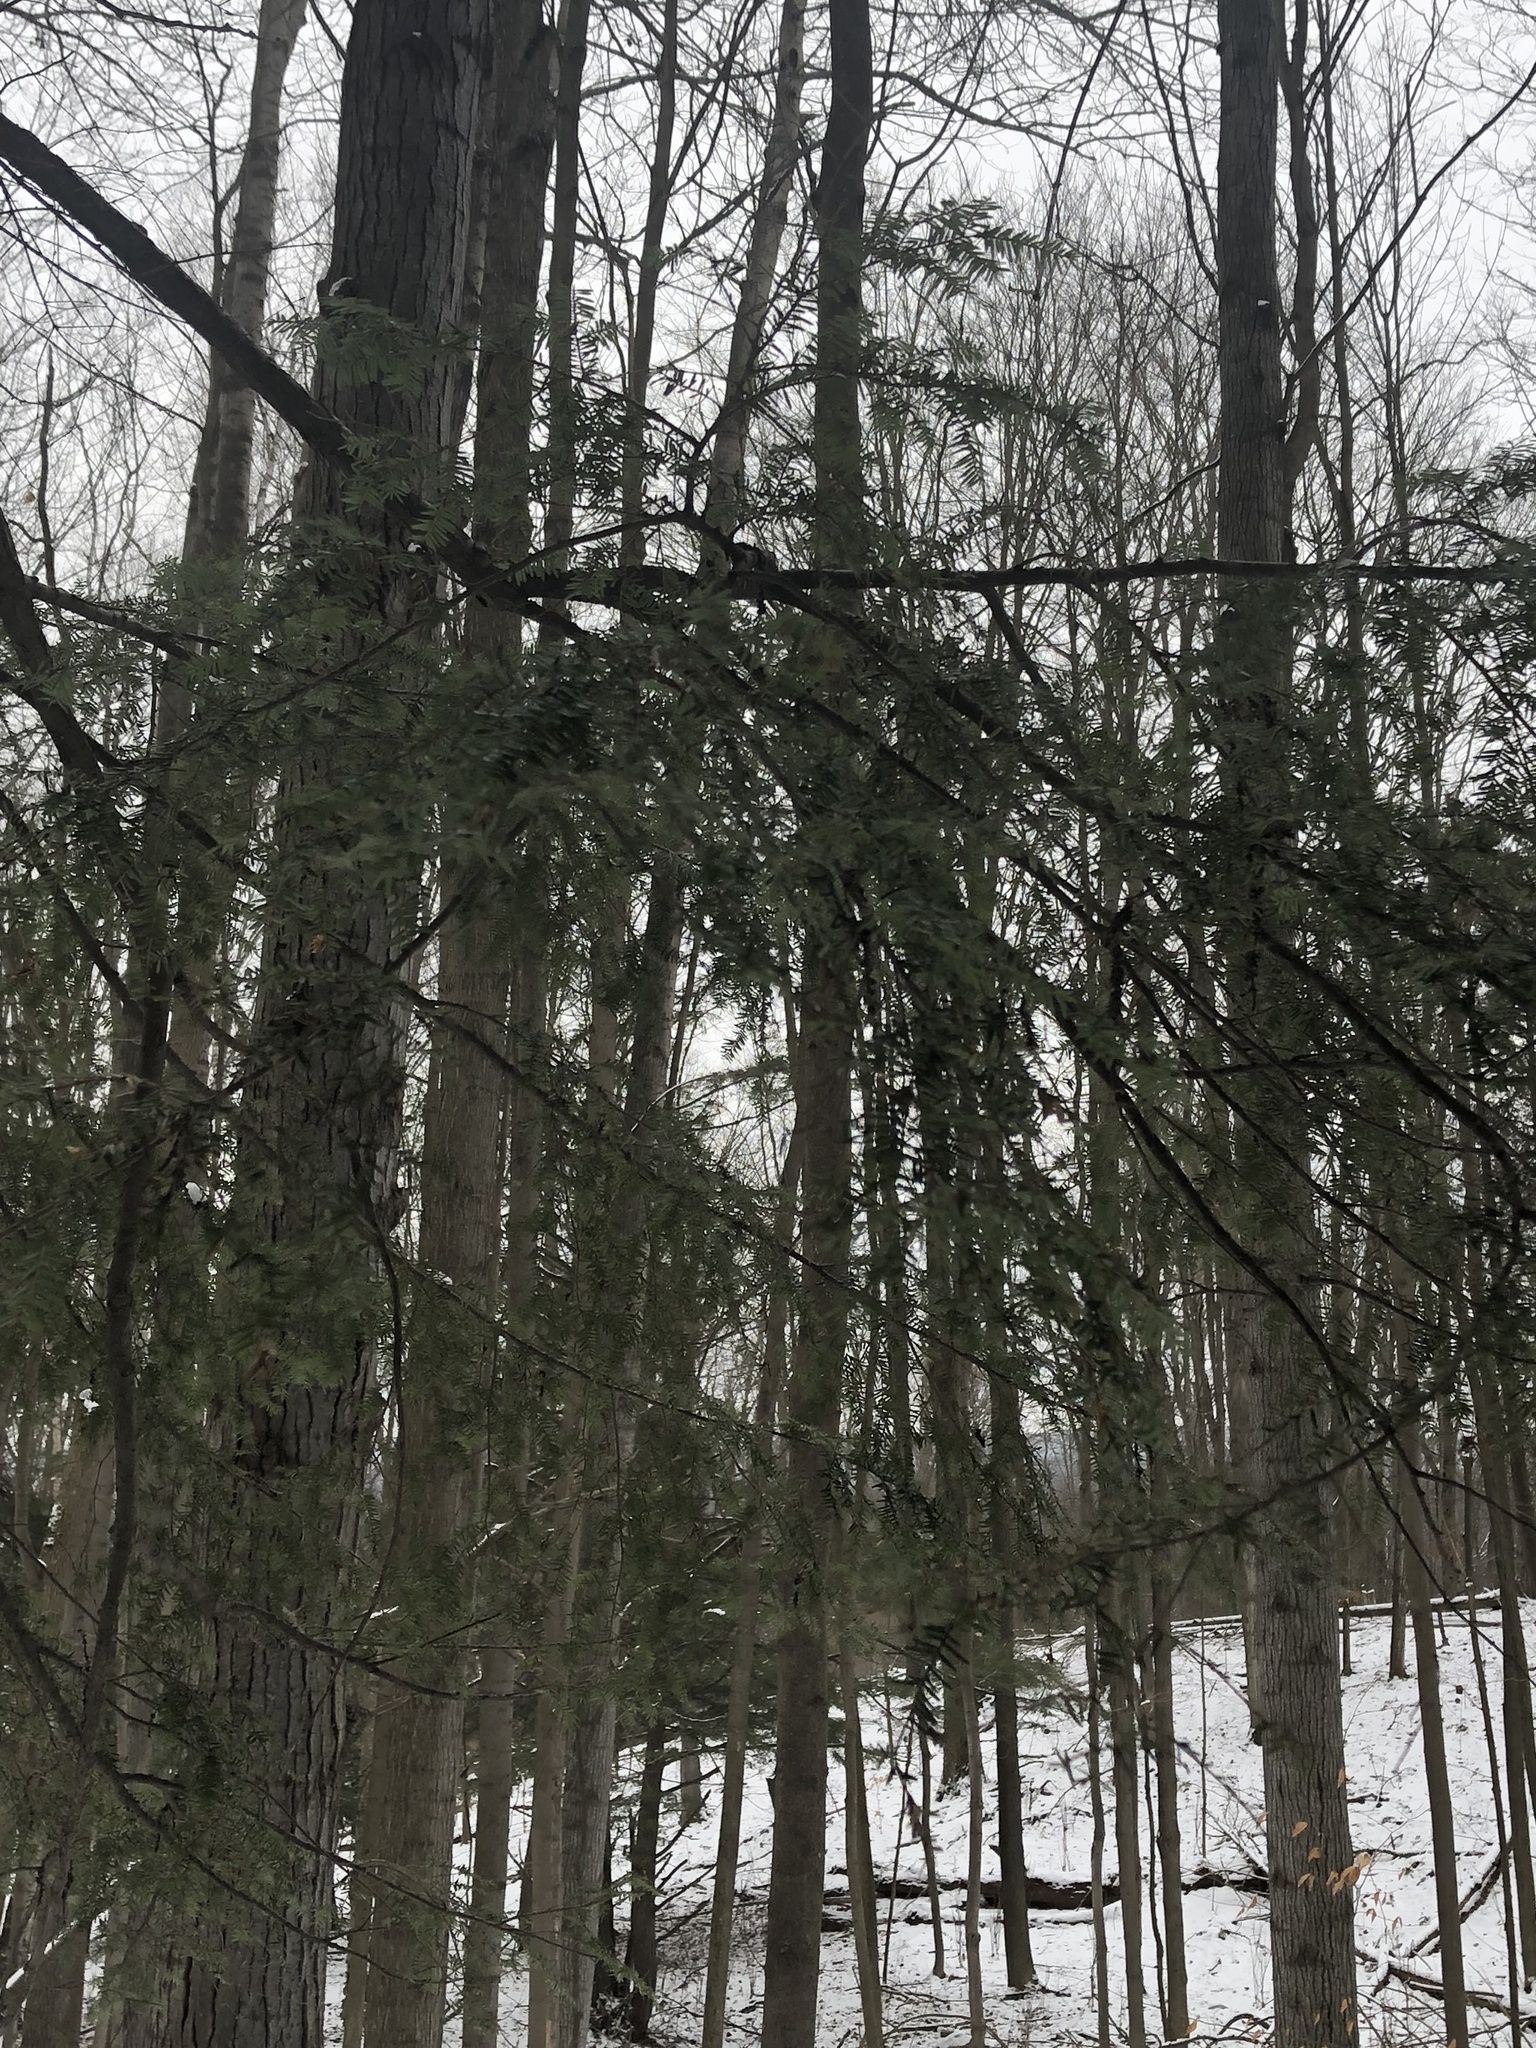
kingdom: Plantae
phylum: Tracheophyta
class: Pinopsida
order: Pinales
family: Pinaceae
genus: Tsuga
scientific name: Tsuga canadensis
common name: Eastern hemlock
